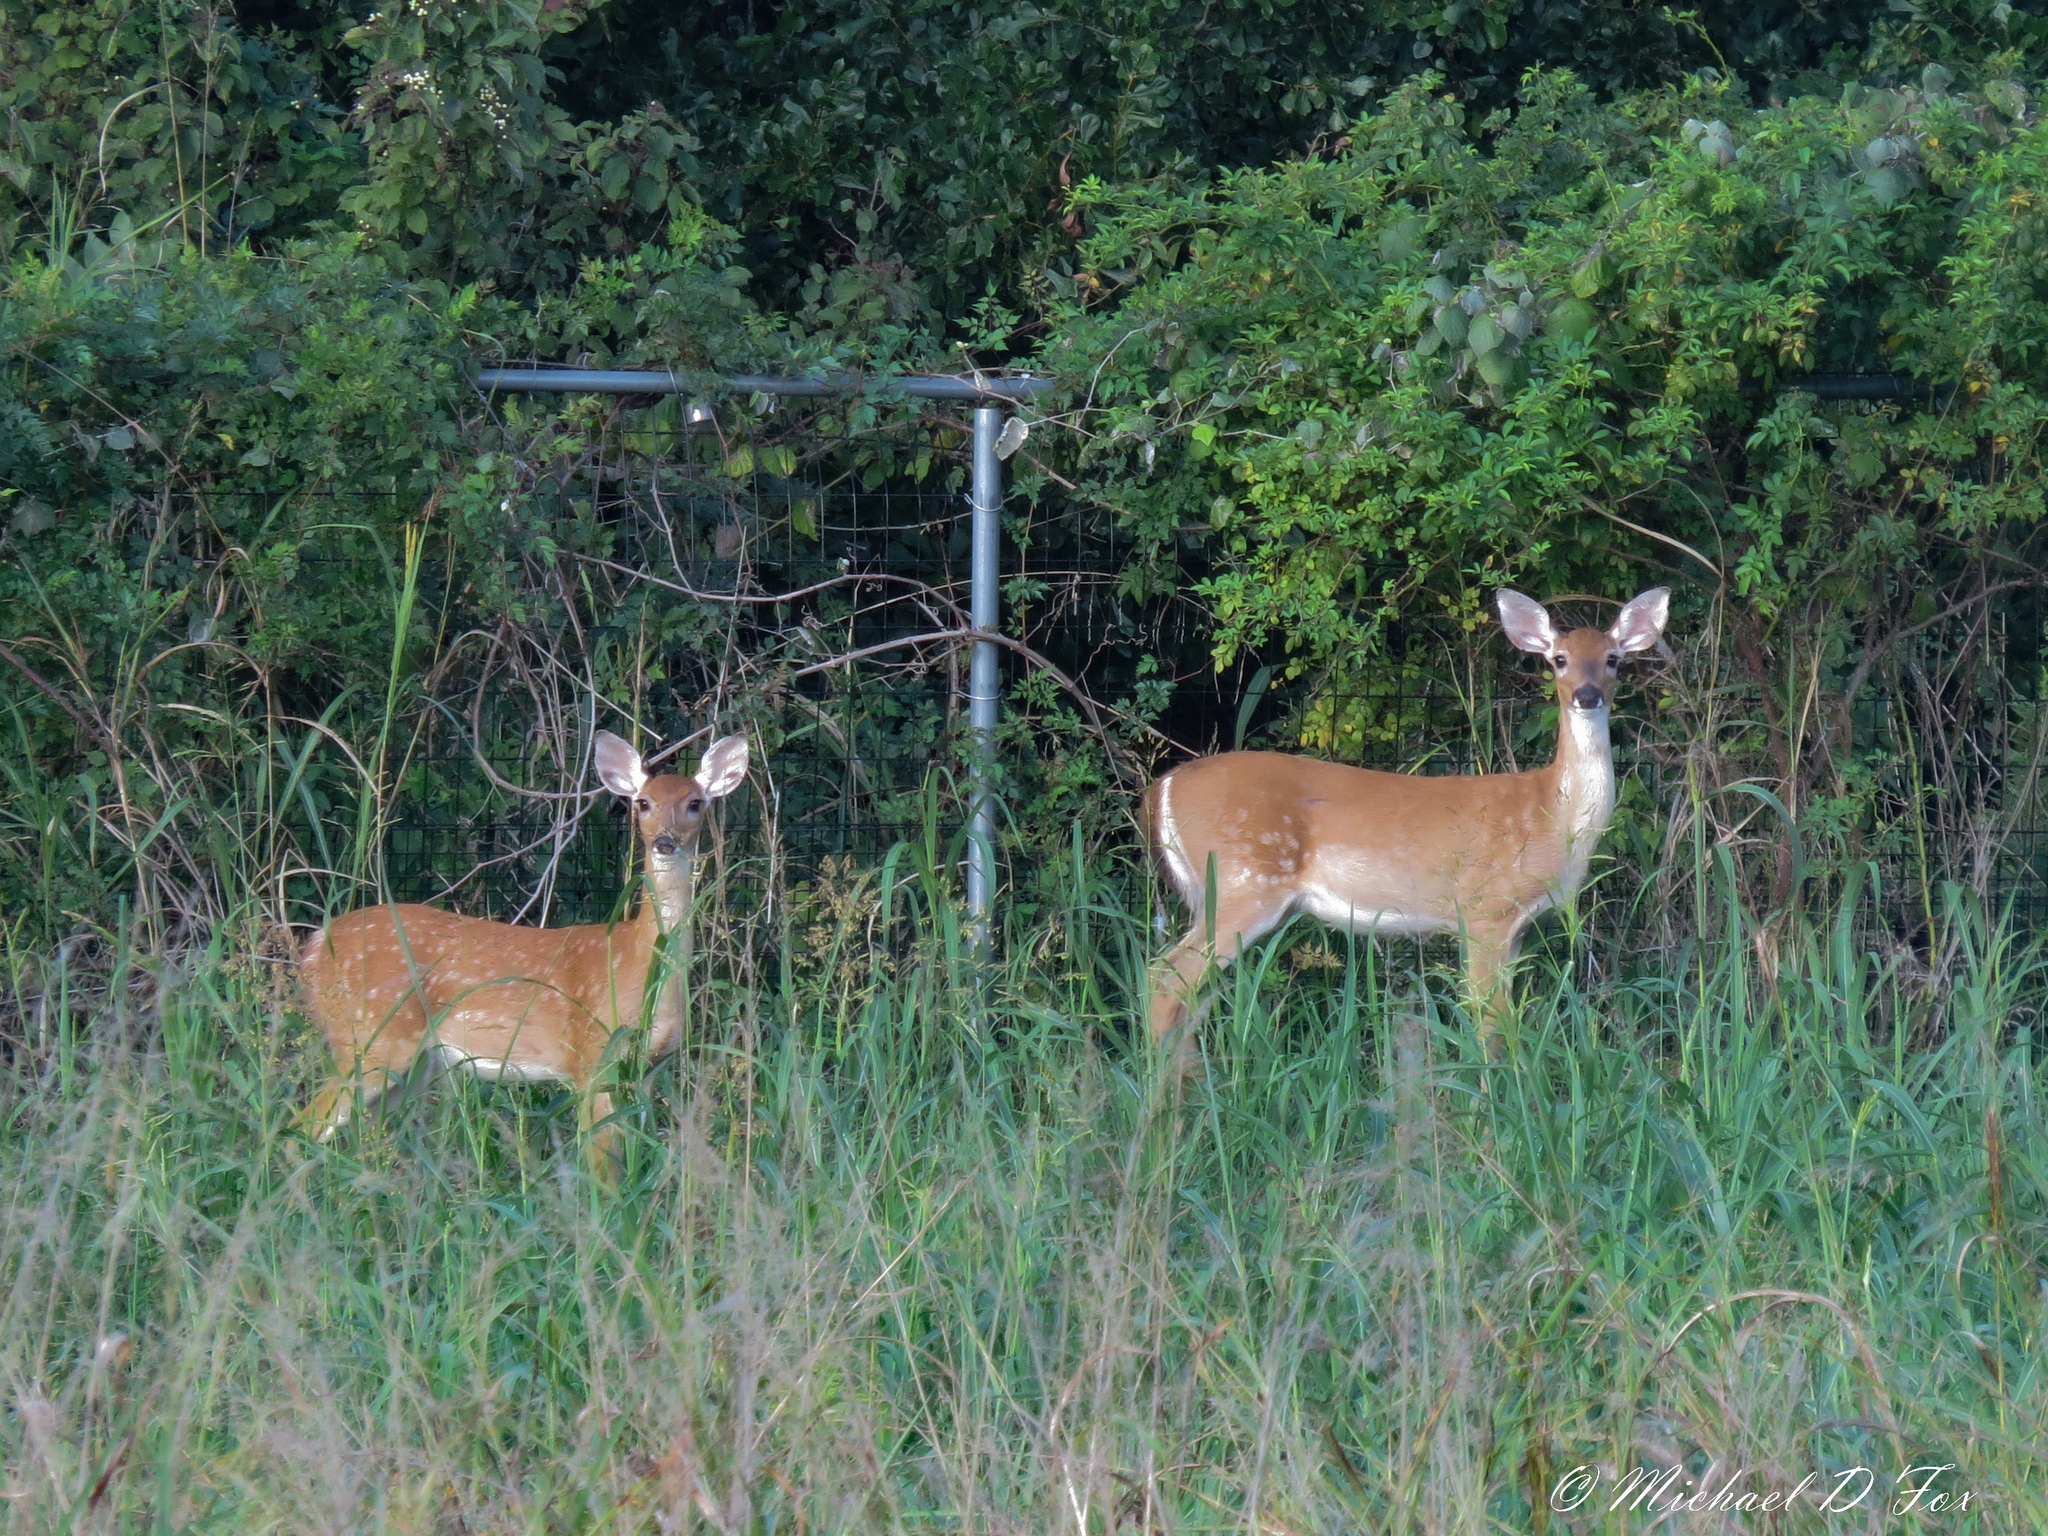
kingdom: Animalia
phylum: Chordata
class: Mammalia
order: Artiodactyla
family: Cervidae
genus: Odocoileus
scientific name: Odocoileus virginianus
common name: White-tailed deer
